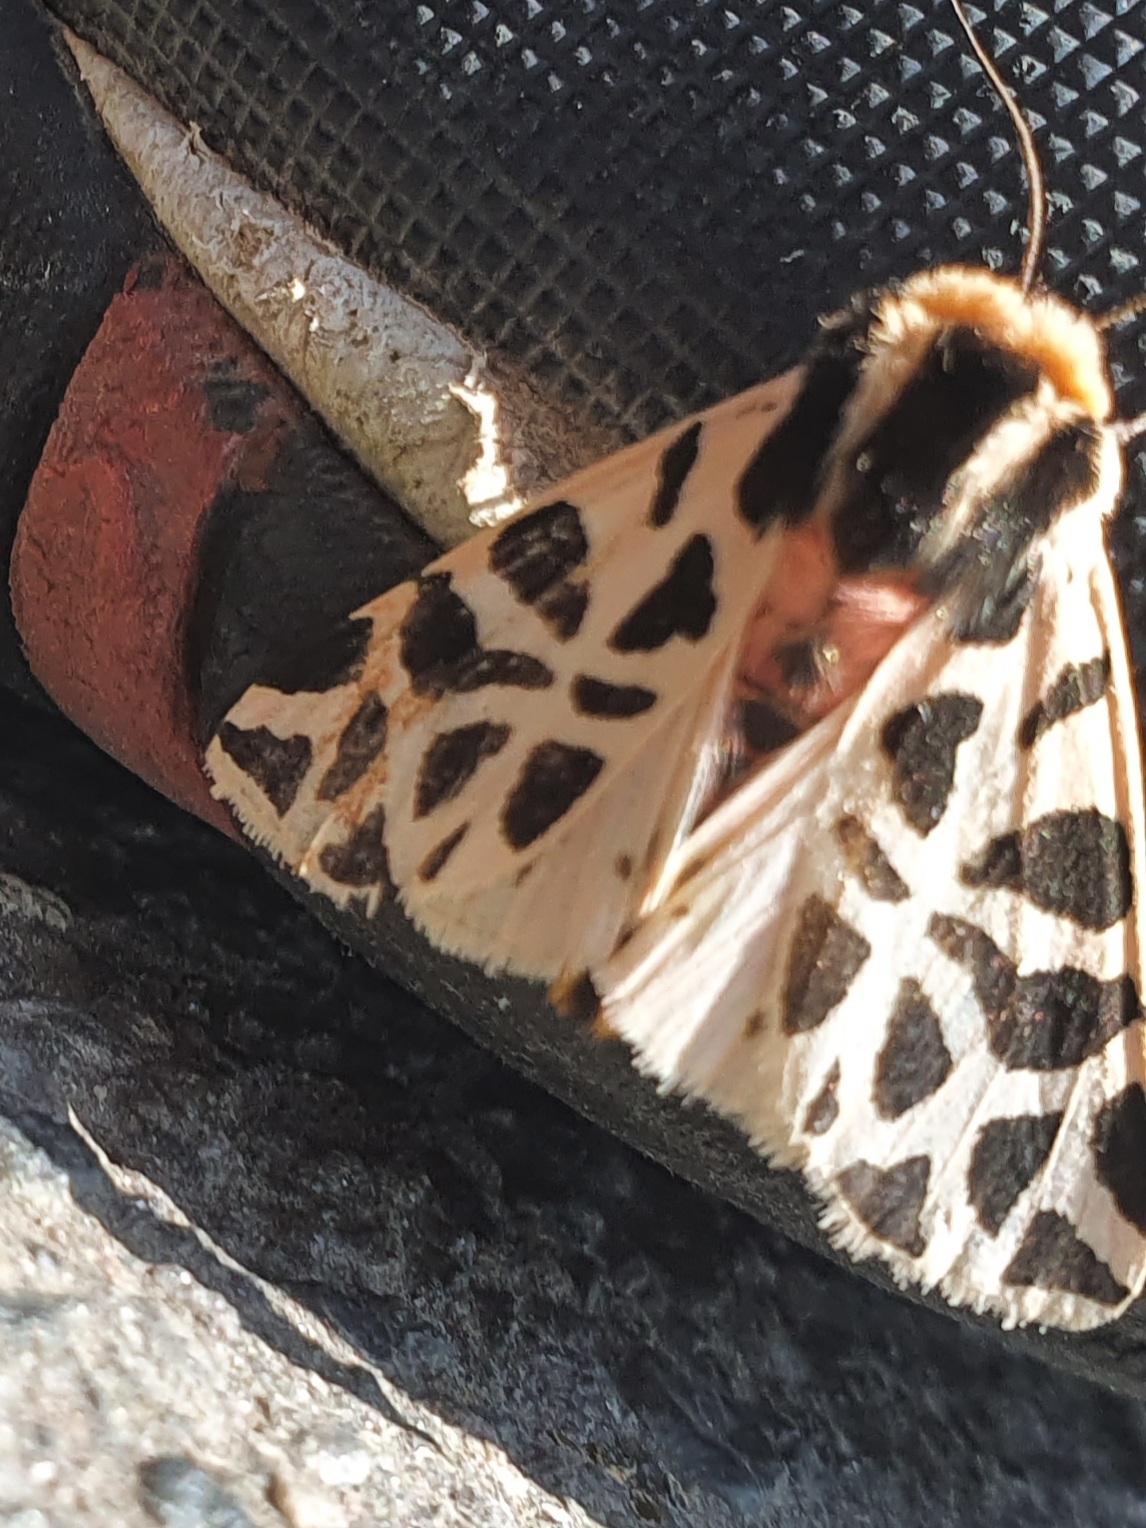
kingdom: Animalia
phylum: Arthropoda
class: Insecta
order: Lepidoptera
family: Erebidae
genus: Cymbalophora
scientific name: Cymbalophora pudica
